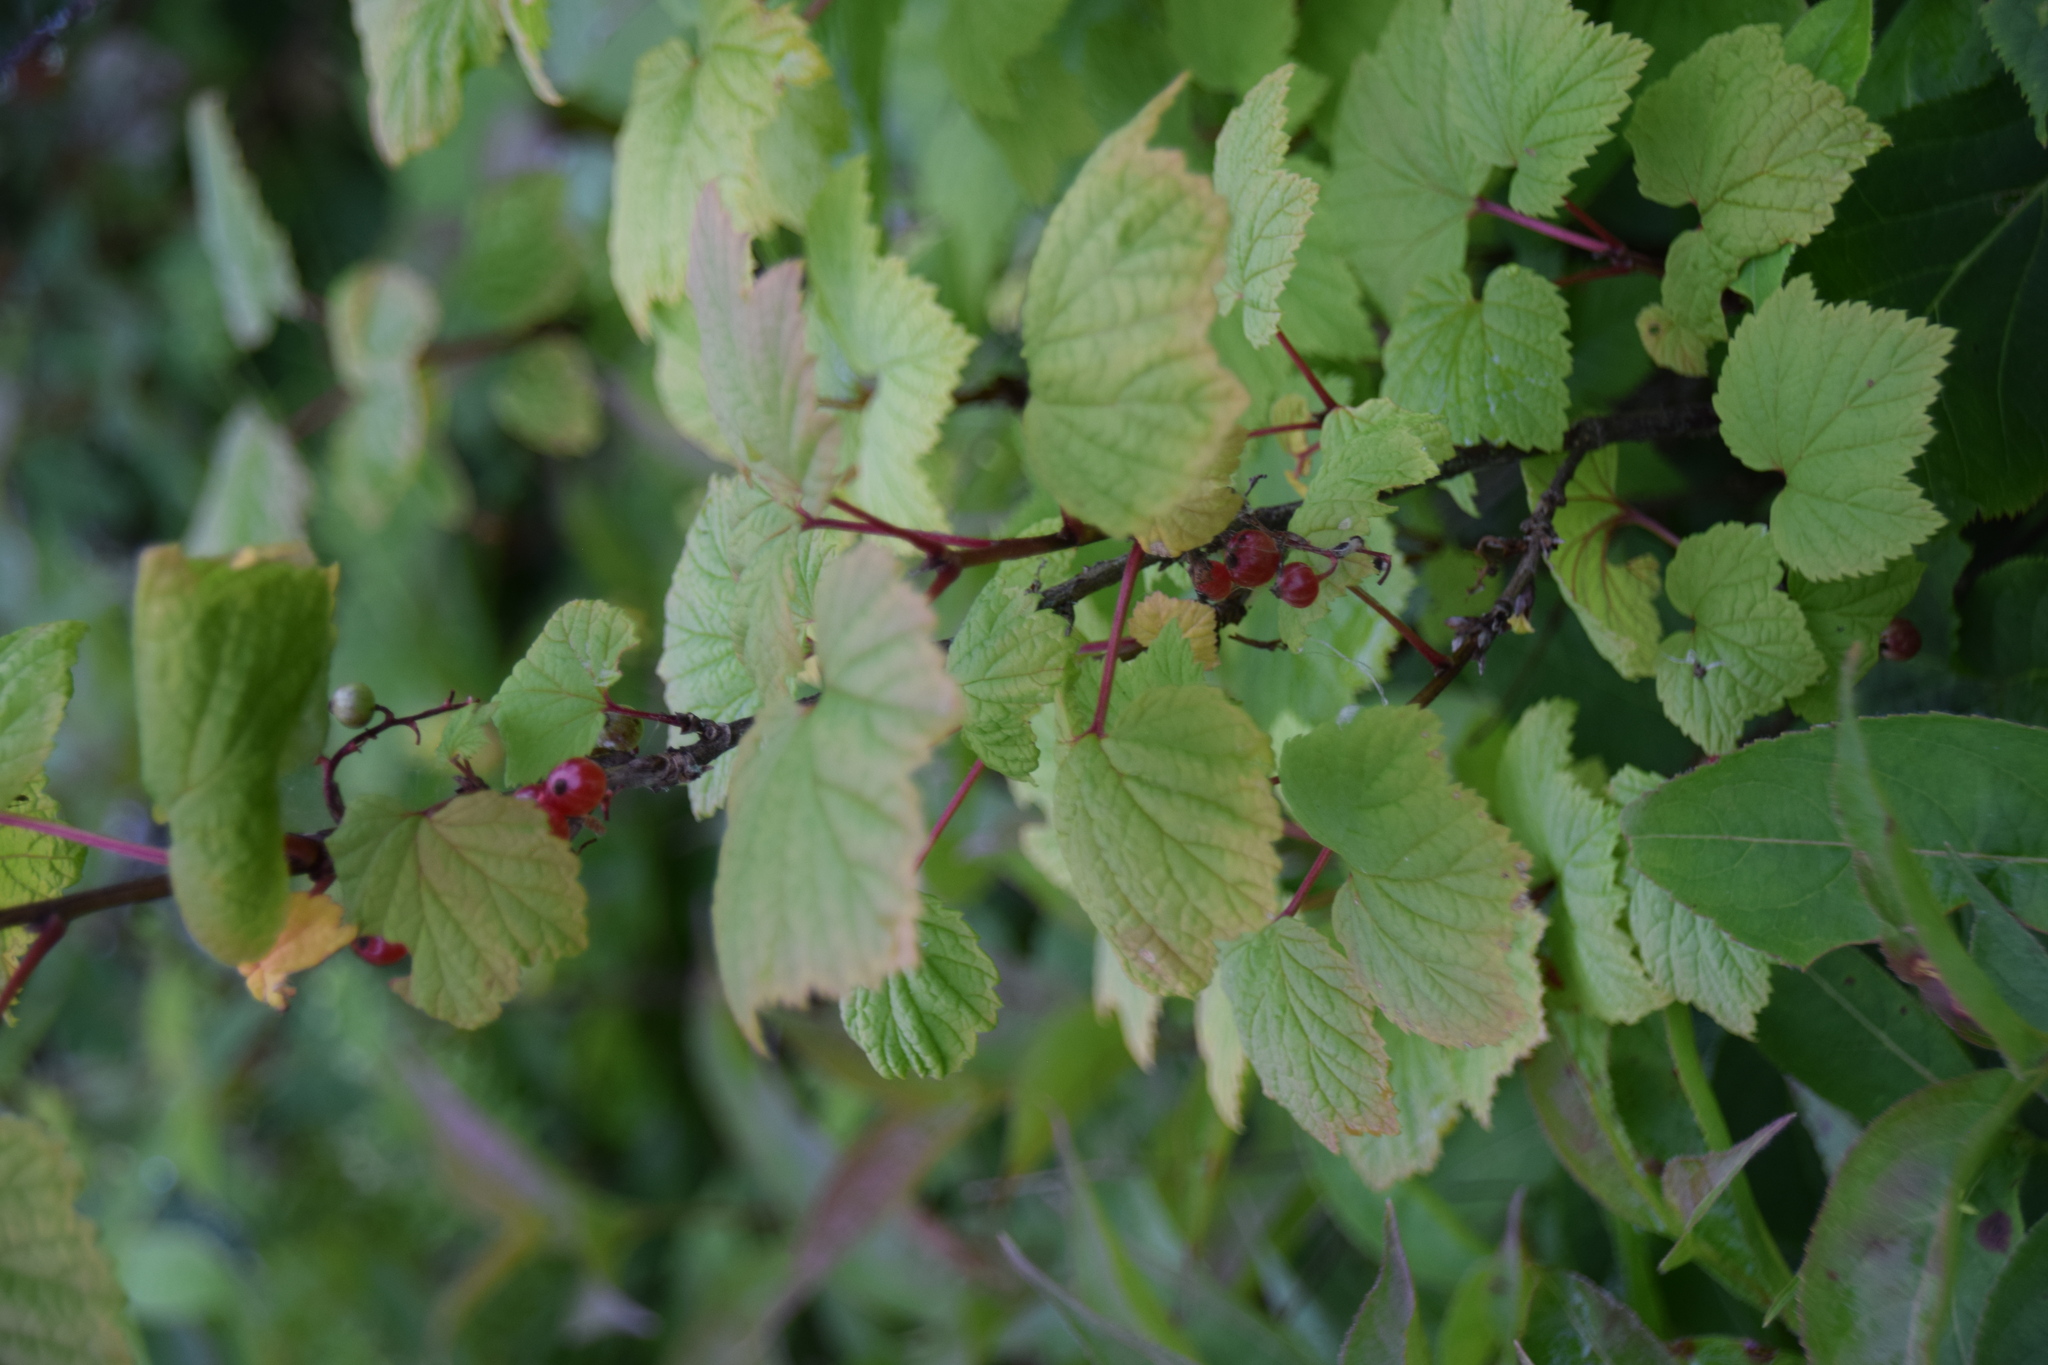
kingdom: Plantae
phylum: Tracheophyta
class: Magnoliopsida
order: Saxifragales
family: Grossulariaceae
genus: Ribes
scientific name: Ribes triste
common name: Swamp red currant
